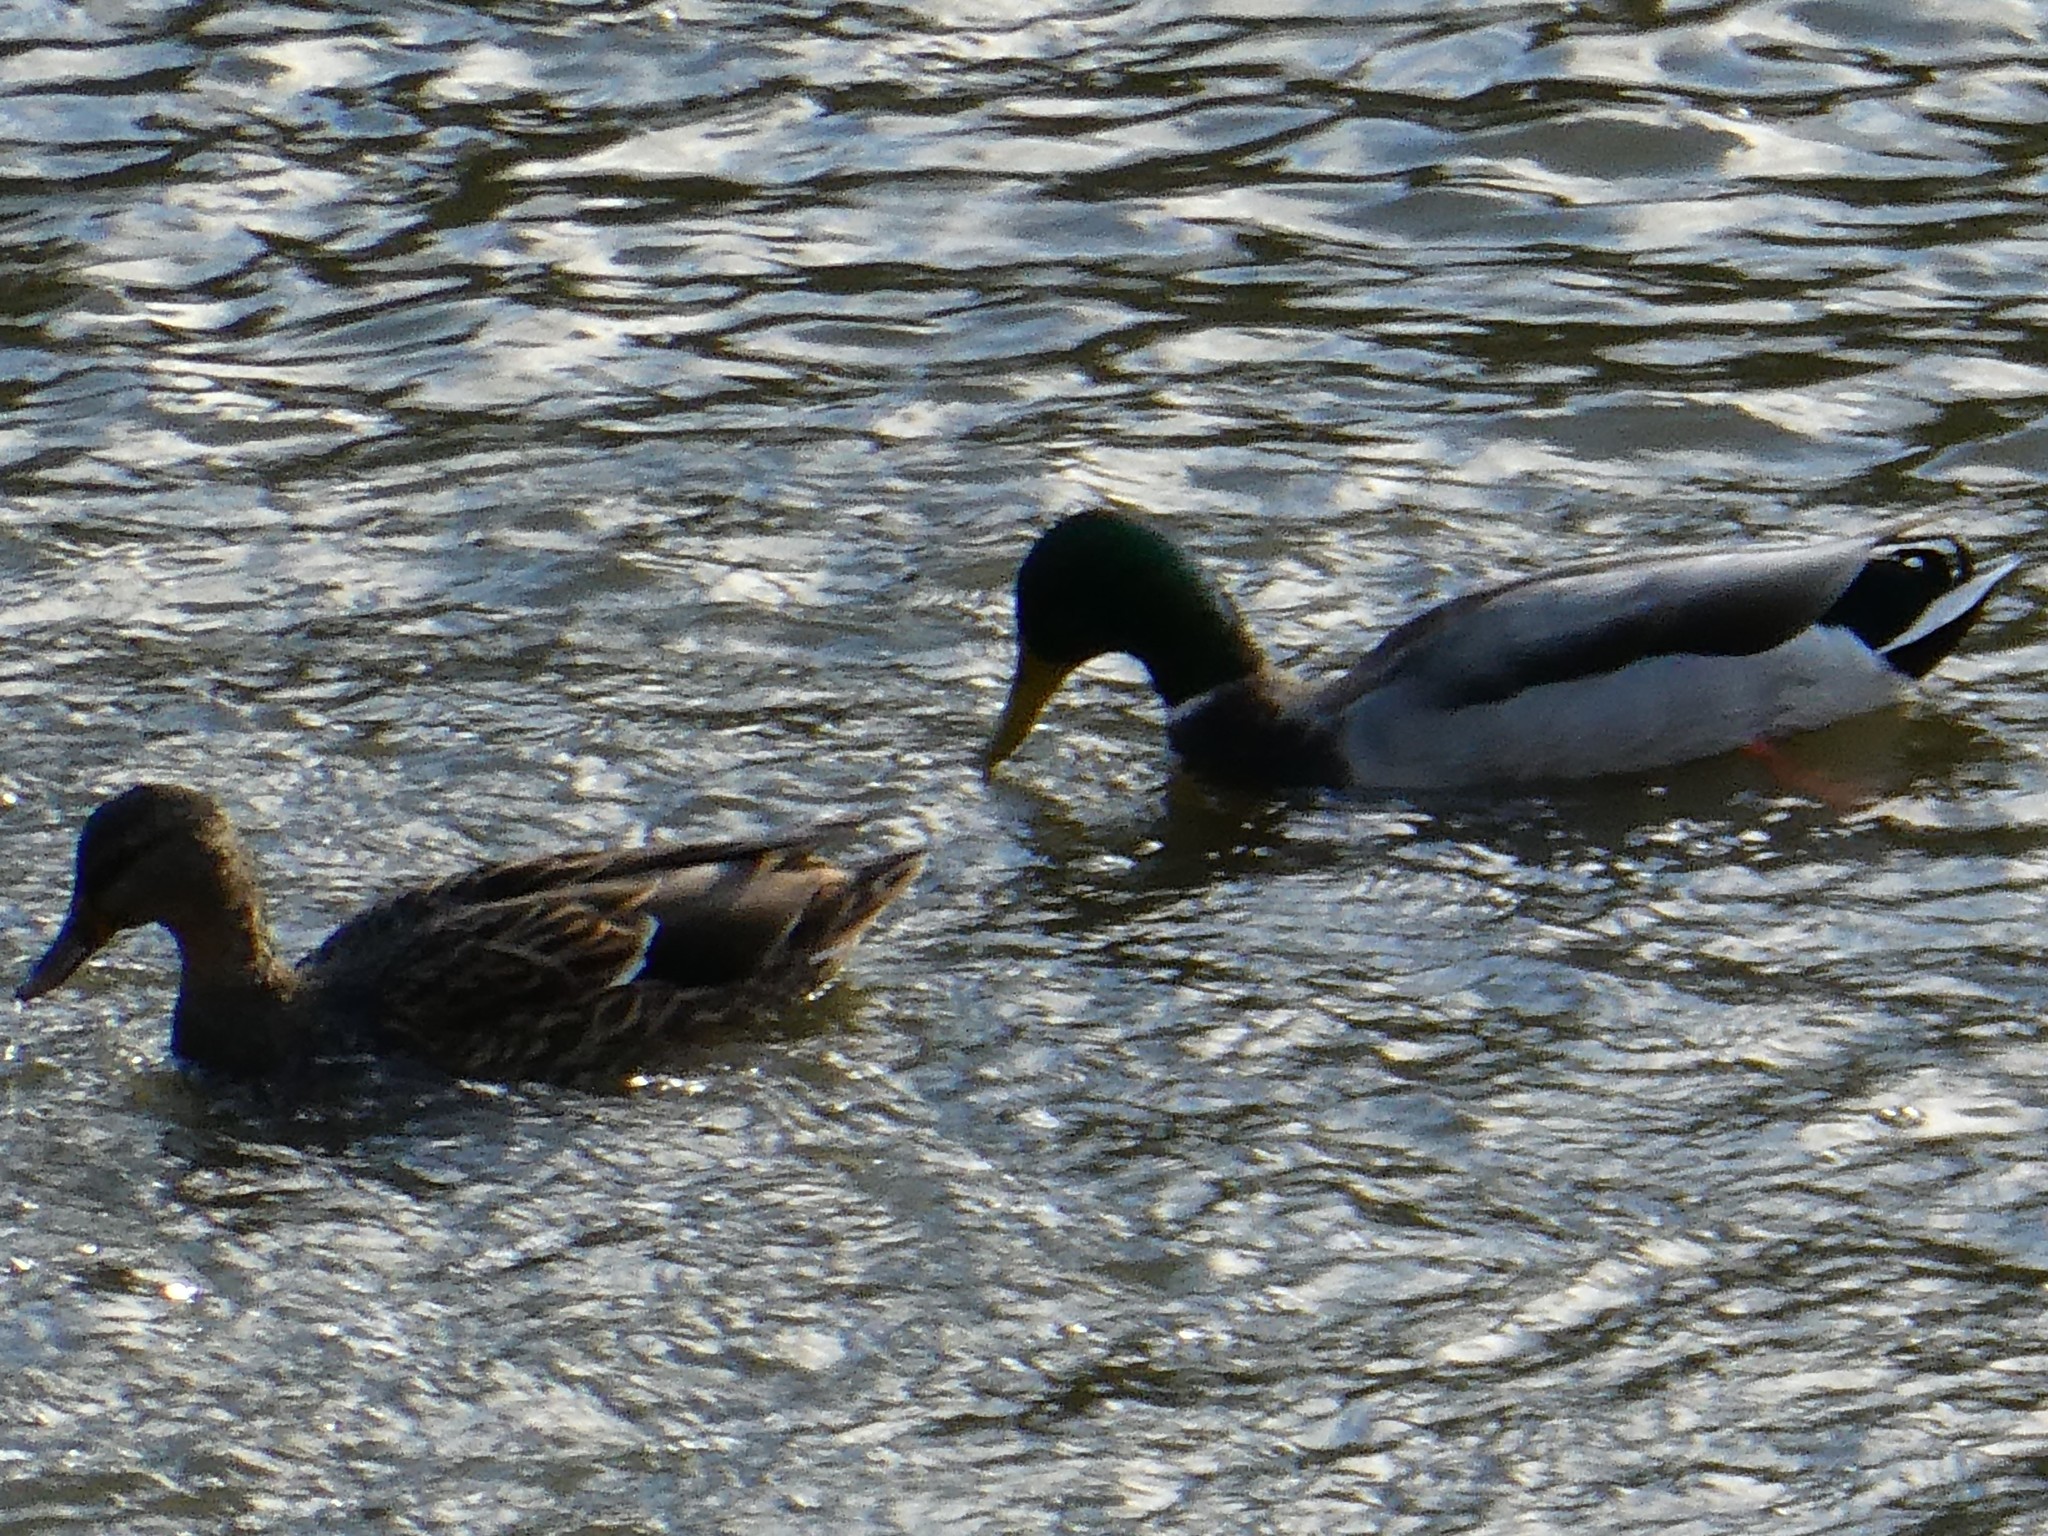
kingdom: Animalia
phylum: Chordata
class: Aves
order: Anseriformes
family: Anatidae
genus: Anas
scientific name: Anas platyrhynchos
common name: Mallard
